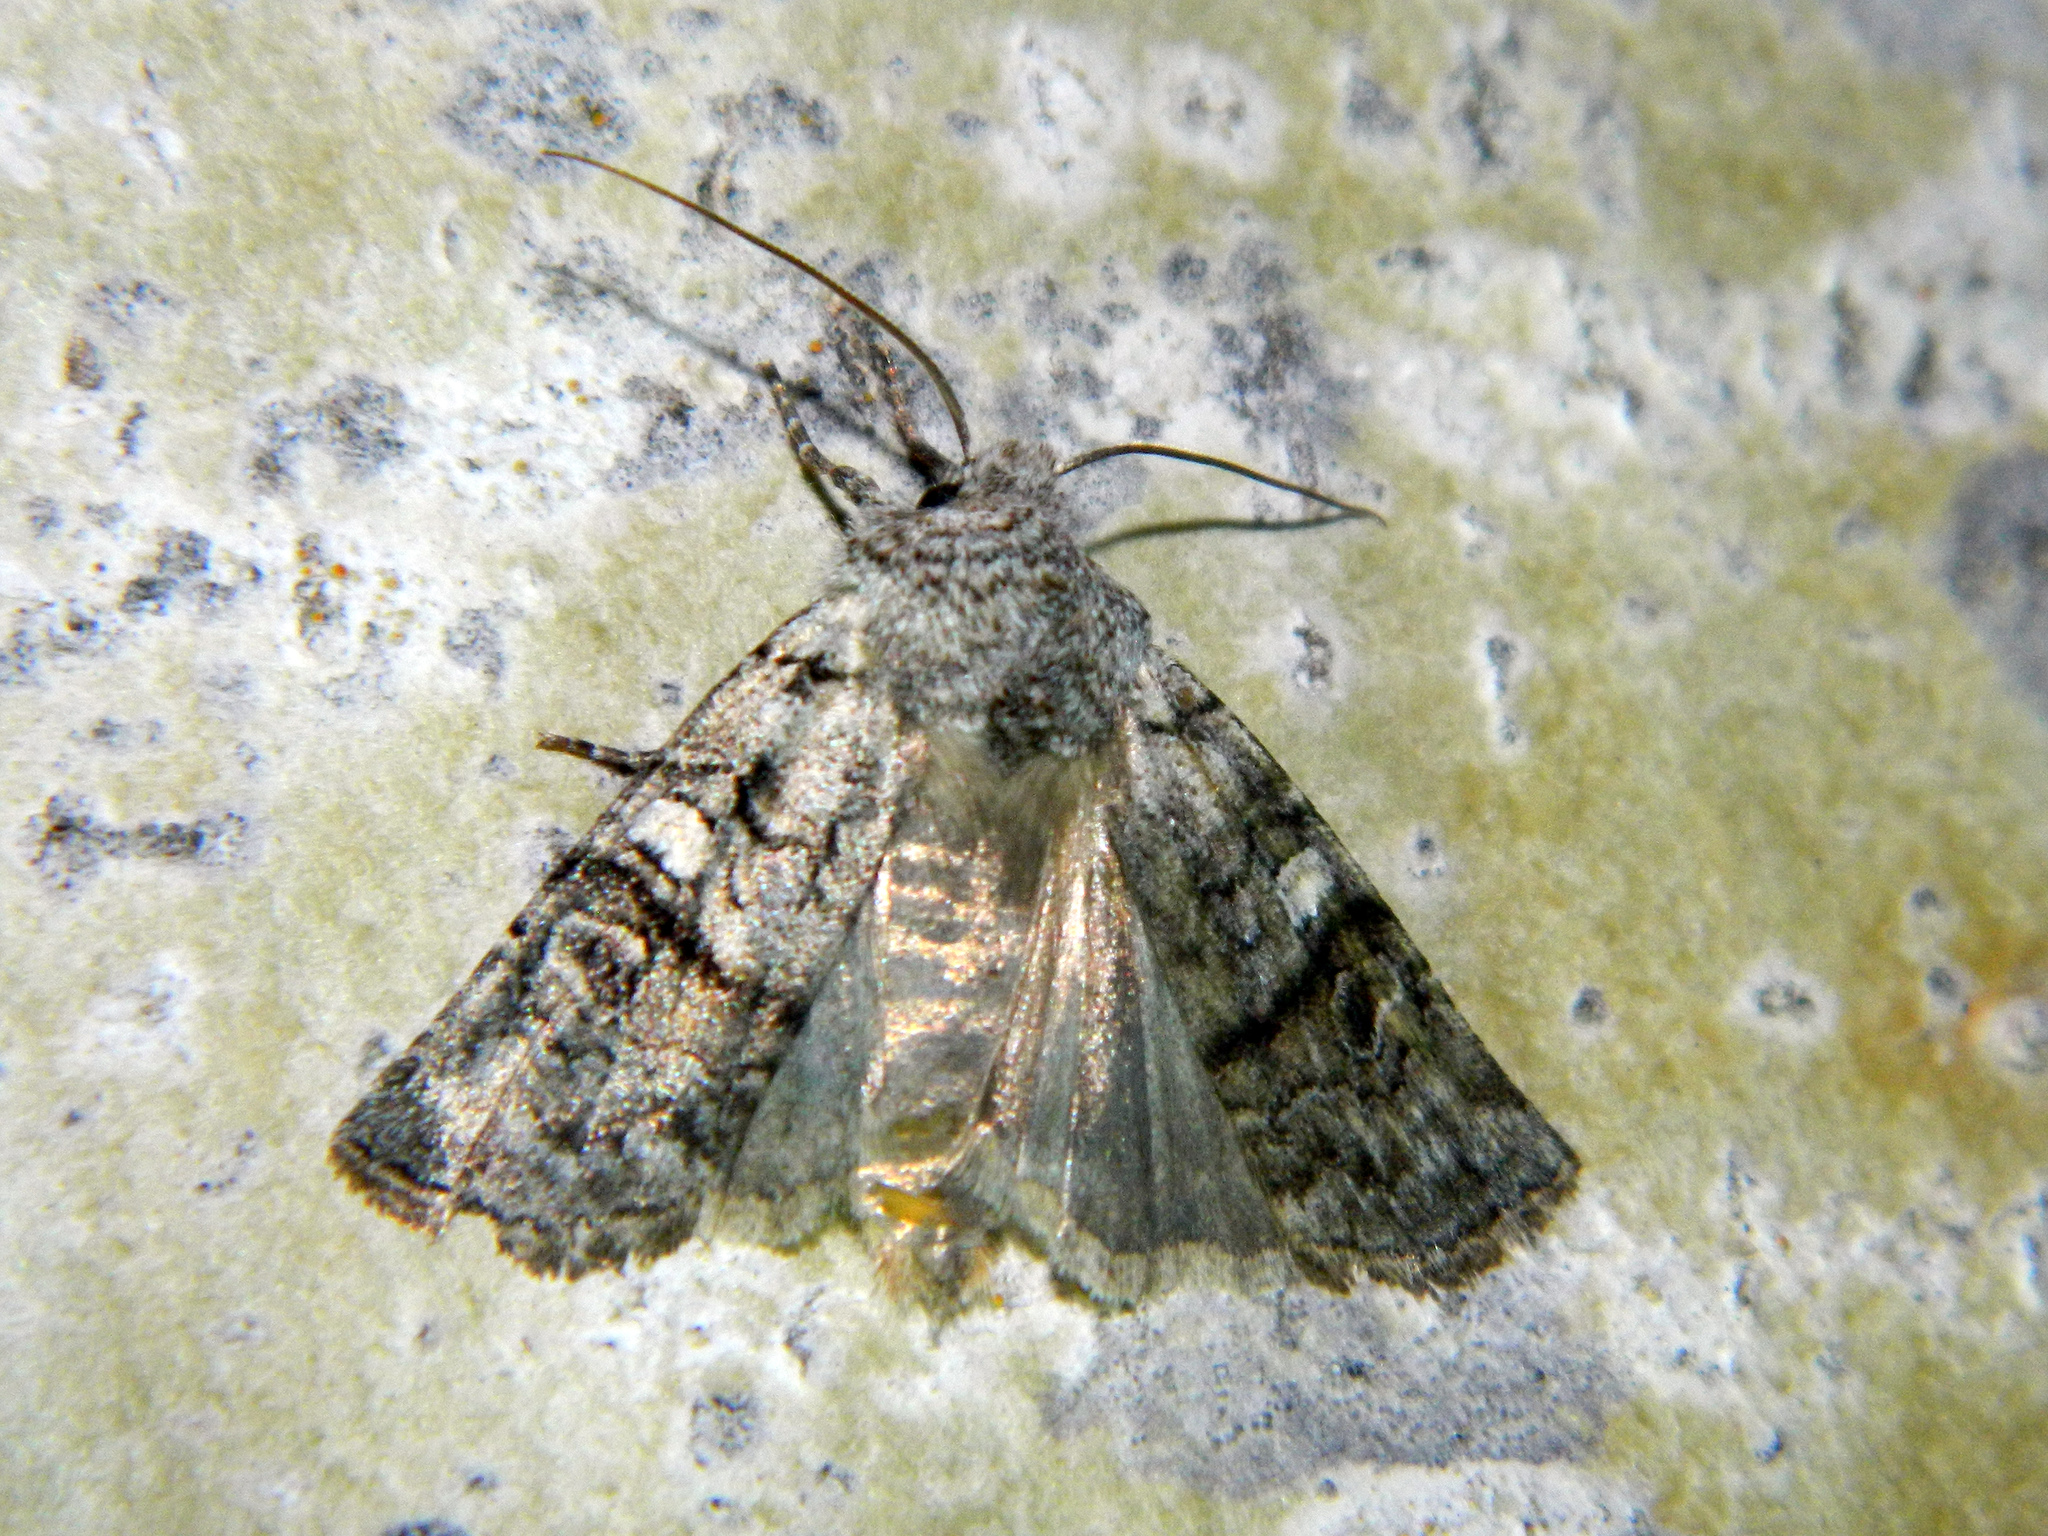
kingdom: Animalia
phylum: Arthropoda
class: Insecta
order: Lepidoptera
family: Noctuidae
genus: Litholomia
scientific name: Litholomia napaea
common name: False pinion moth
